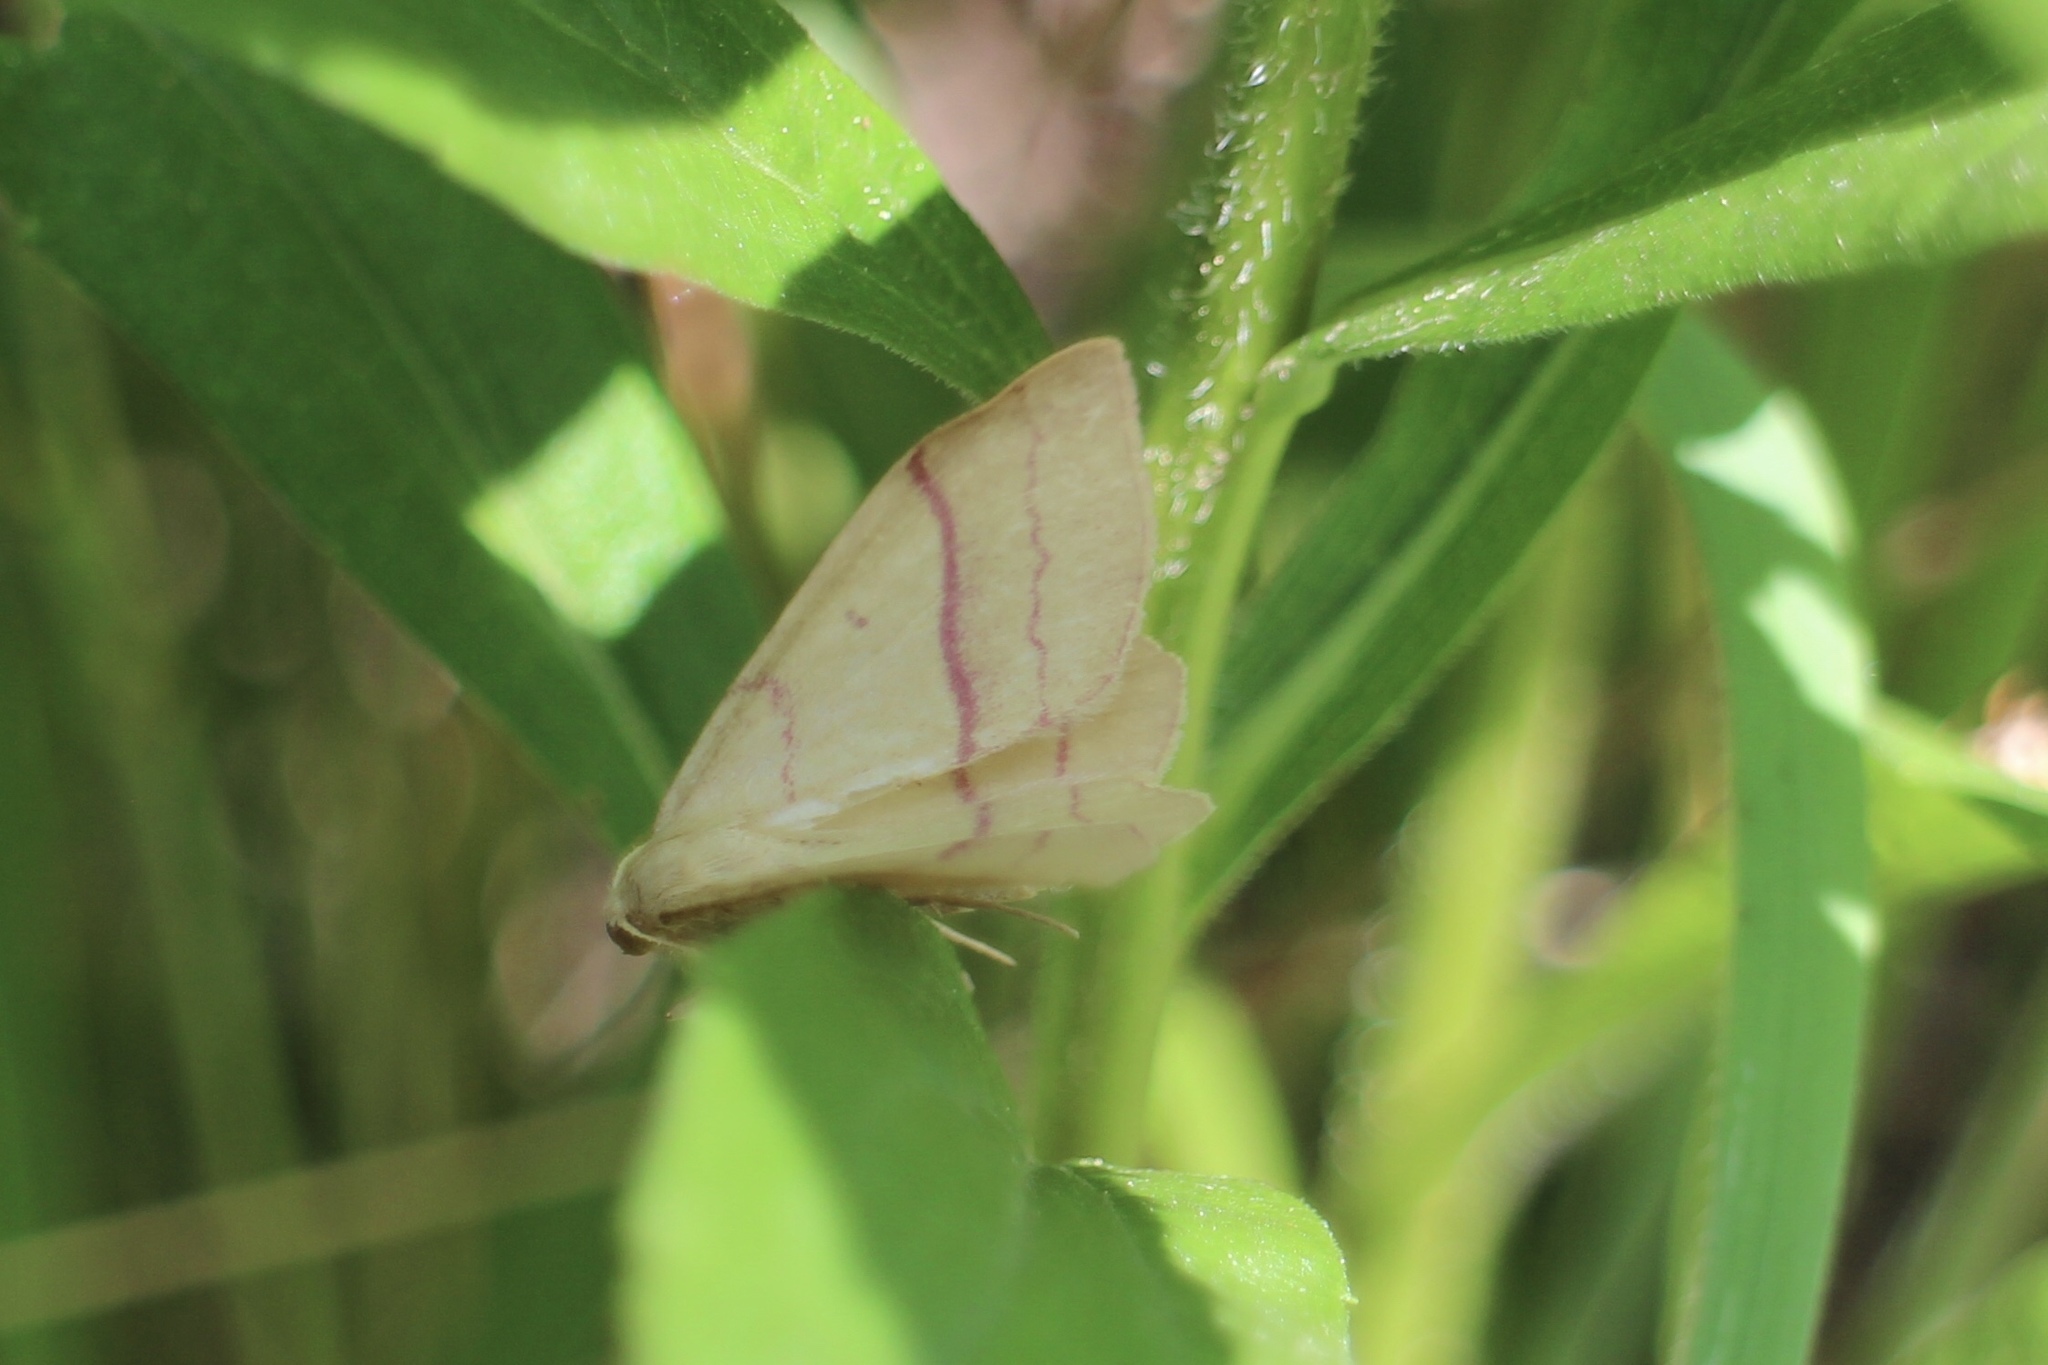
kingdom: Animalia
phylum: Arthropoda
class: Insecta
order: Lepidoptera
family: Geometridae
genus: Rhodostrophia
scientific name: Rhodostrophia vibicaria
